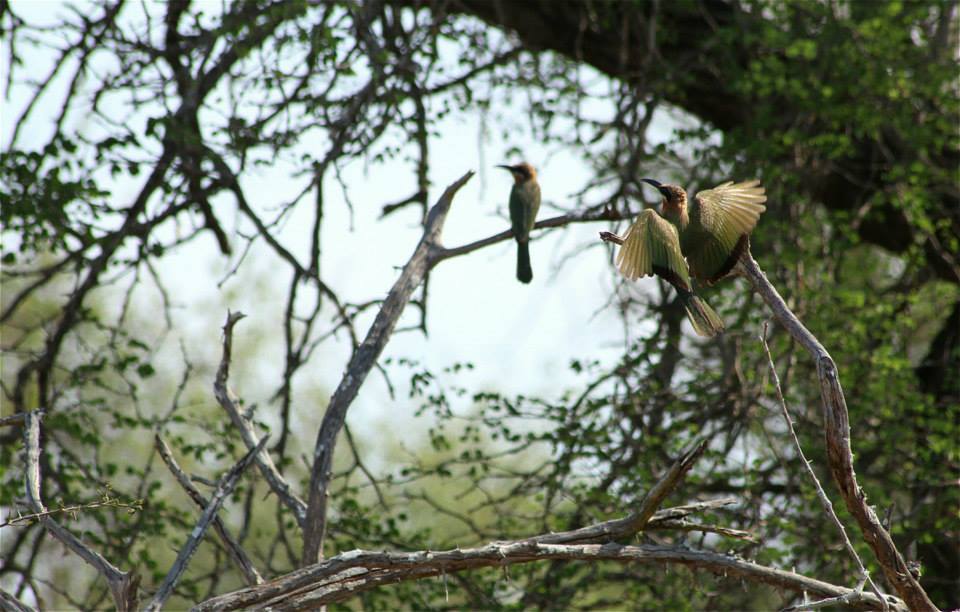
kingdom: Animalia
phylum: Chordata
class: Aves
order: Coraciiformes
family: Meropidae
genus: Merops
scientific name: Merops bullockoides
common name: White-fronted bee-eater
